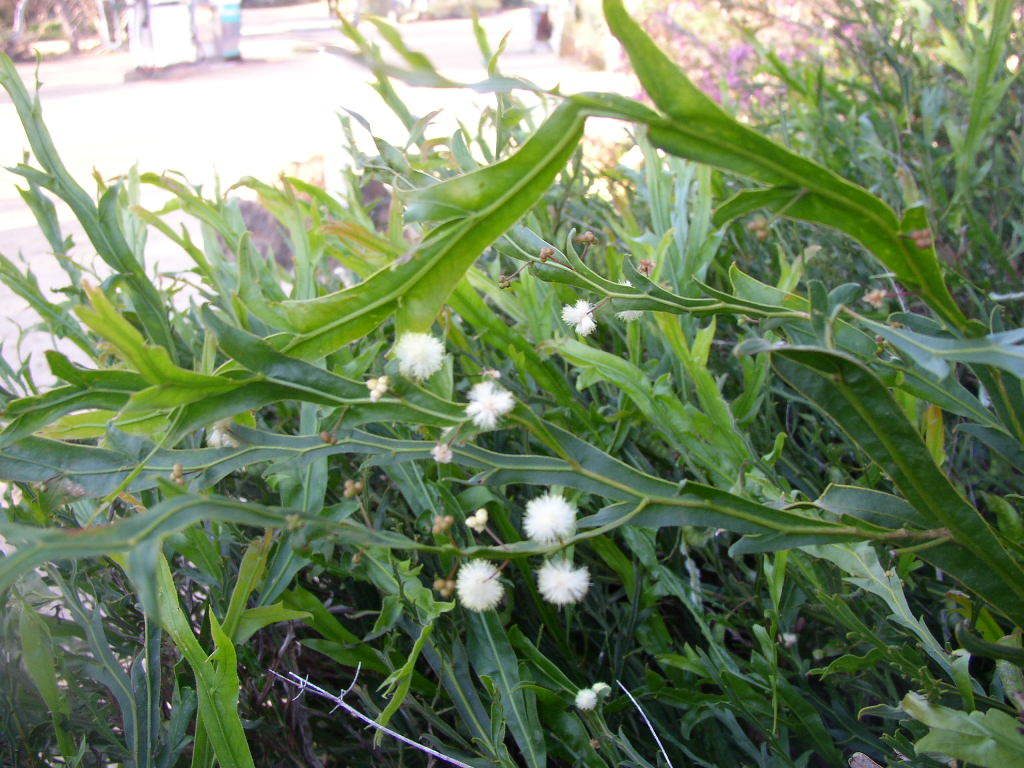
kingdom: Plantae
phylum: Tracheophyta
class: Magnoliopsida
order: Fabales
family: Fabaceae
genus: Acacia
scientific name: Acacia alata
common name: Winged wattle
